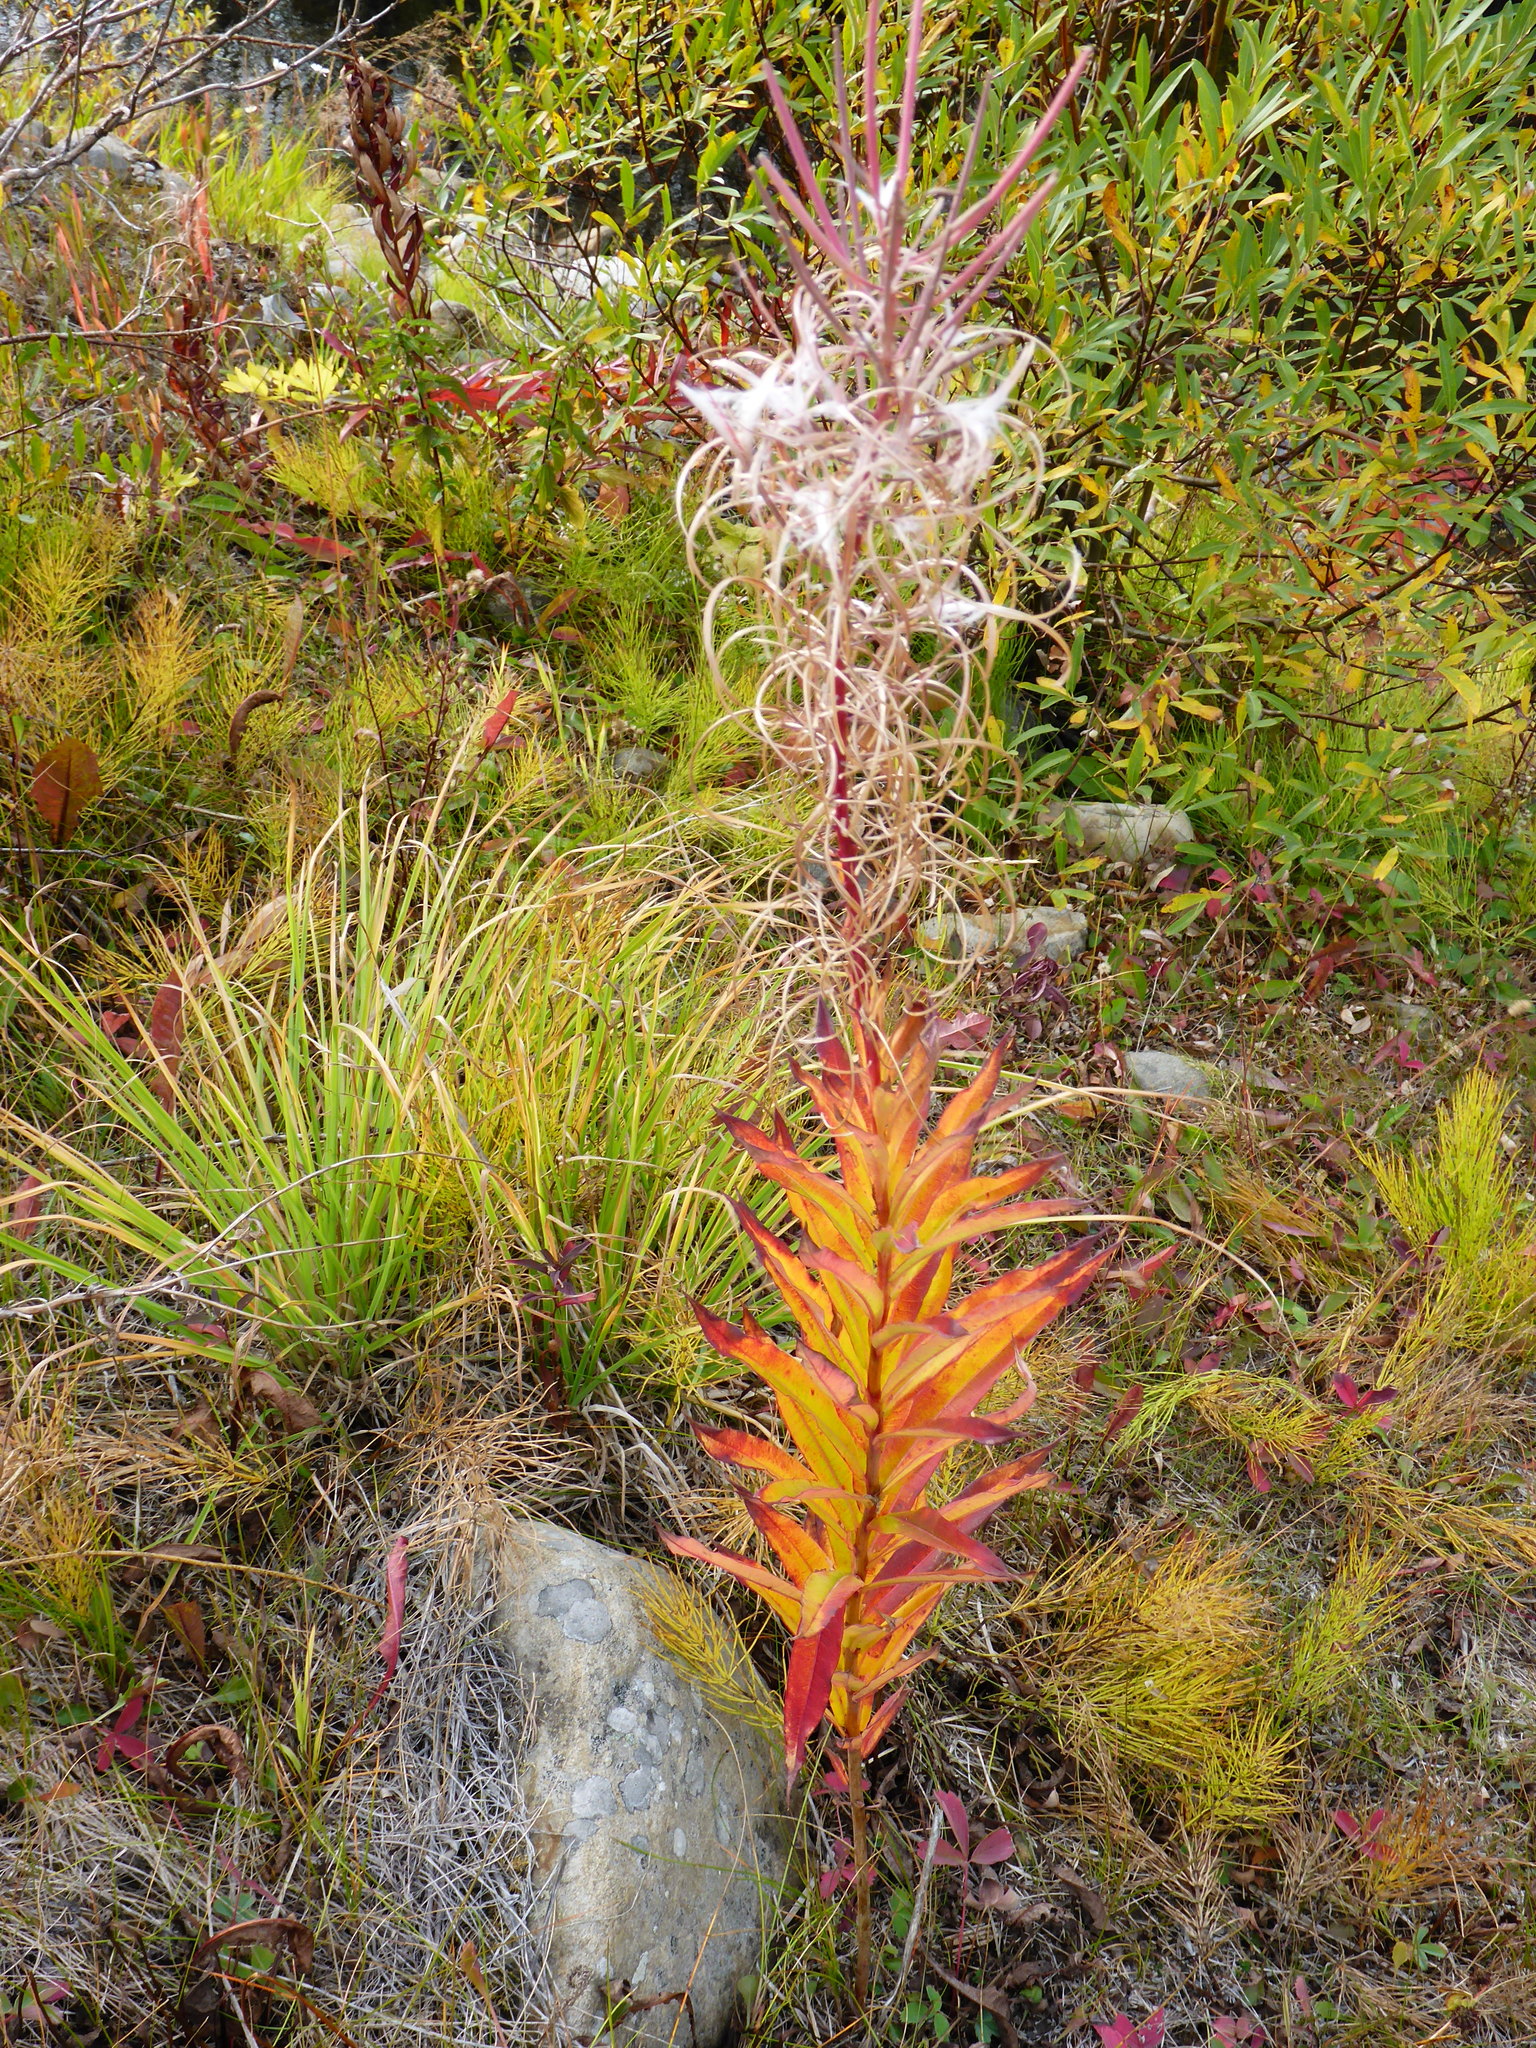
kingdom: Plantae
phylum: Tracheophyta
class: Magnoliopsida
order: Myrtales
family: Onagraceae
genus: Chamaenerion
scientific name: Chamaenerion angustifolium
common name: Fireweed
